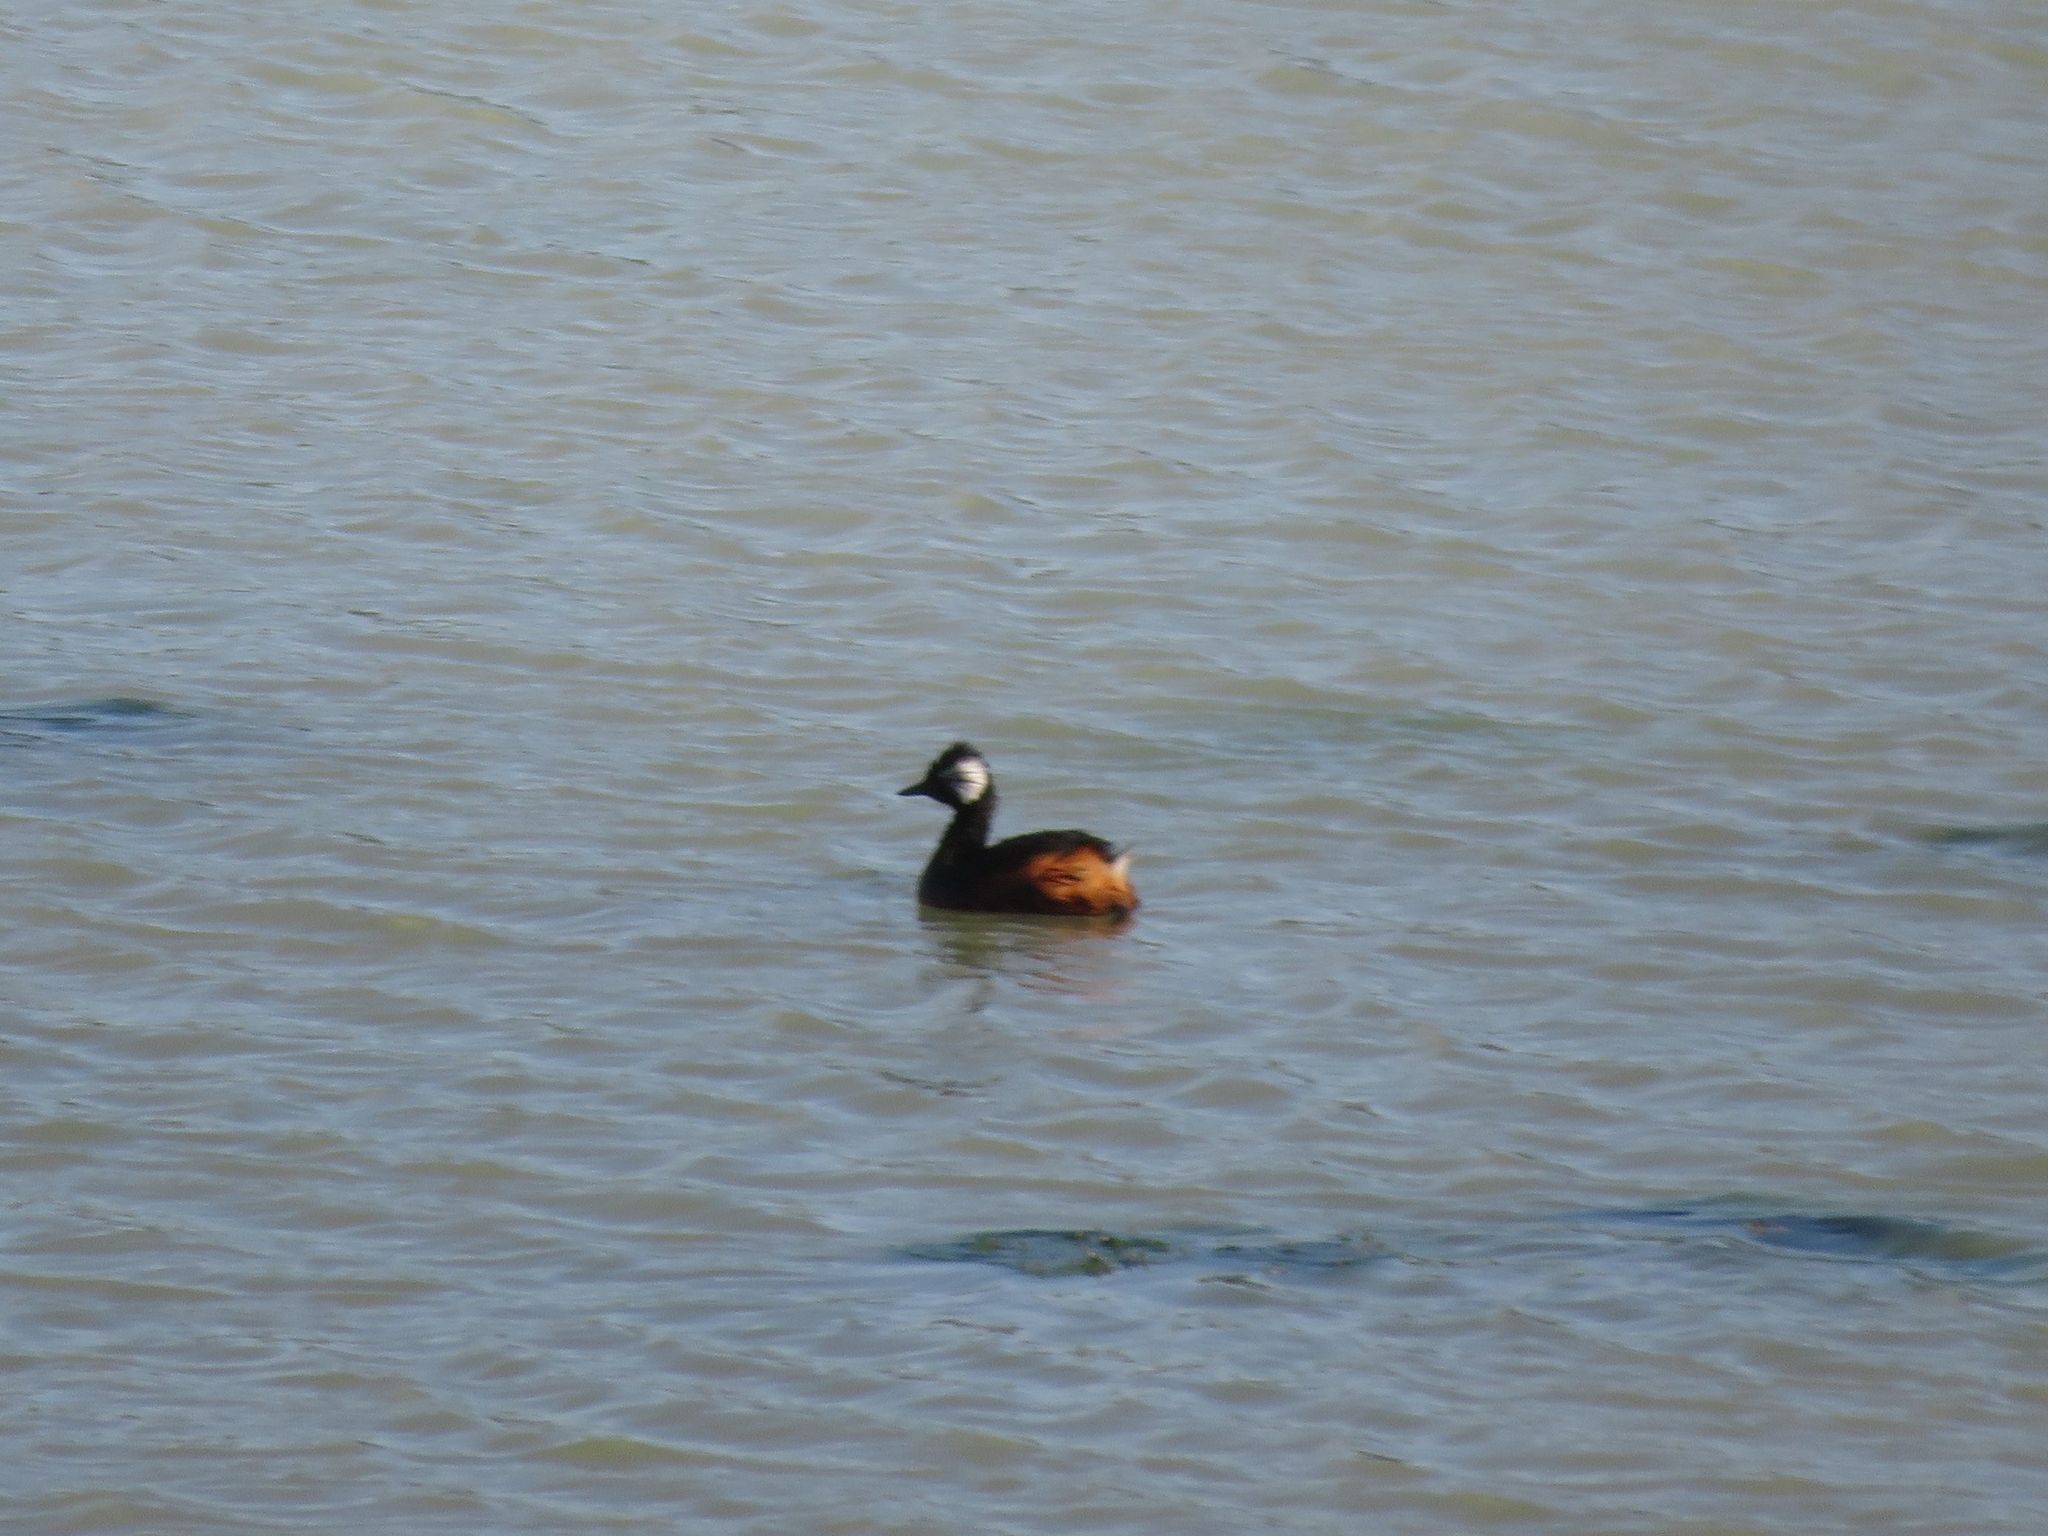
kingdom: Animalia
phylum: Chordata
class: Aves
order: Podicipediformes
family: Podicipedidae
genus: Rollandia
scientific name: Rollandia rolland
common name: White-tufted grebe
